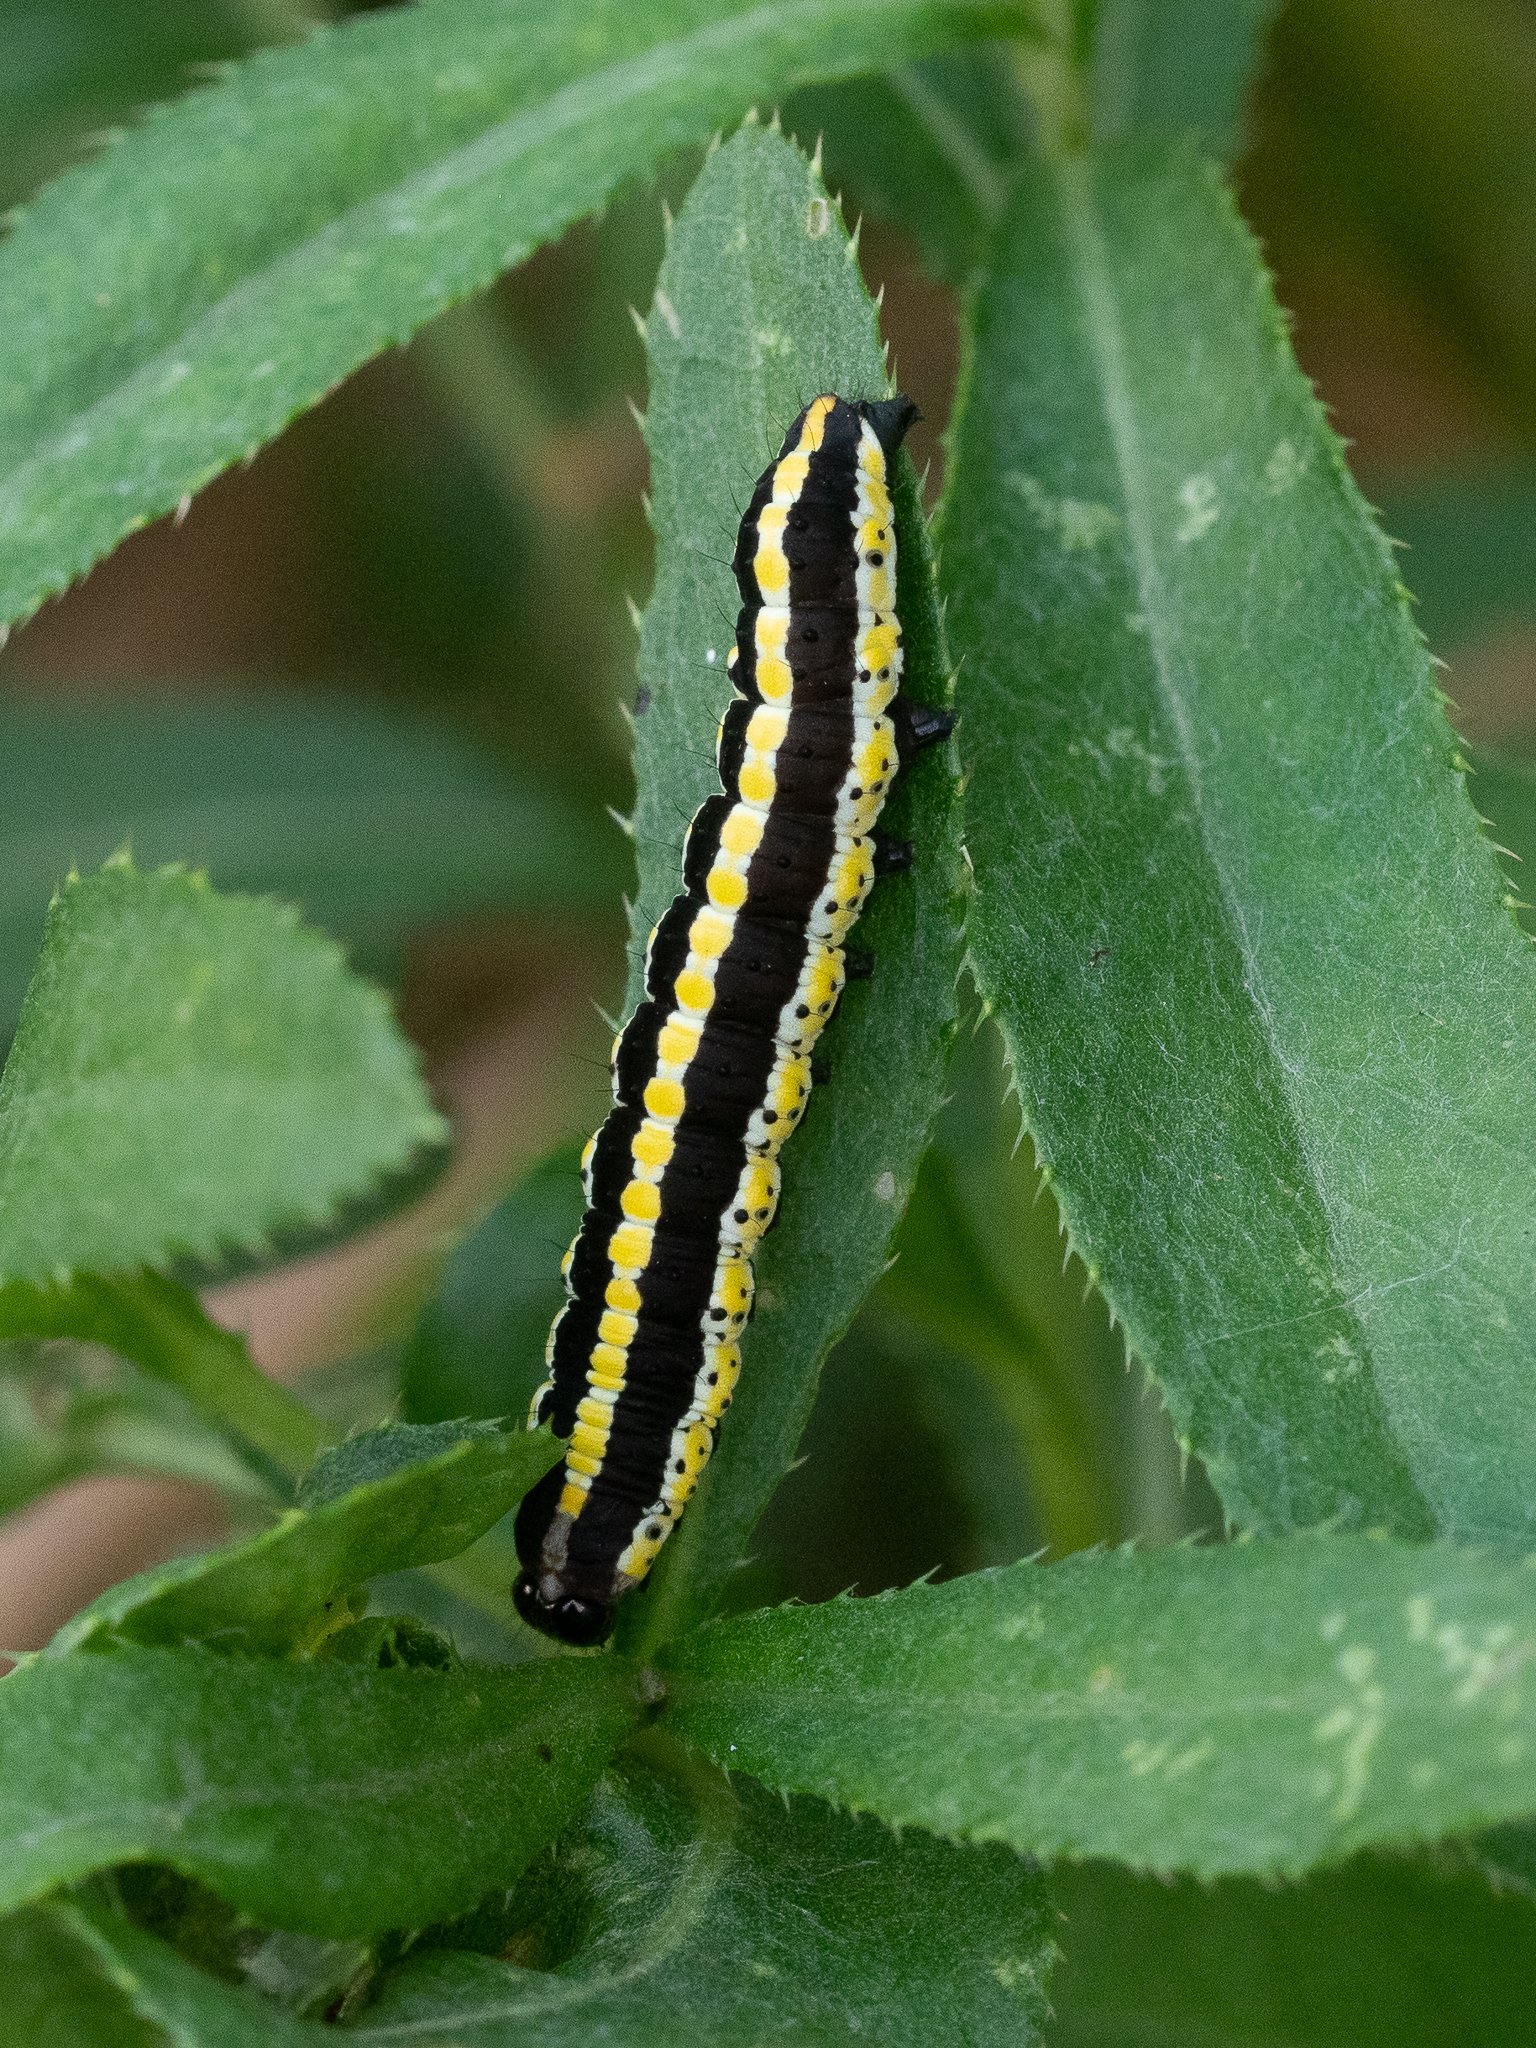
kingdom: Animalia
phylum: Arthropoda
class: Insecta
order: Lepidoptera
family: Noctuidae
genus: Cucullia
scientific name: Cucullia lucifuga
